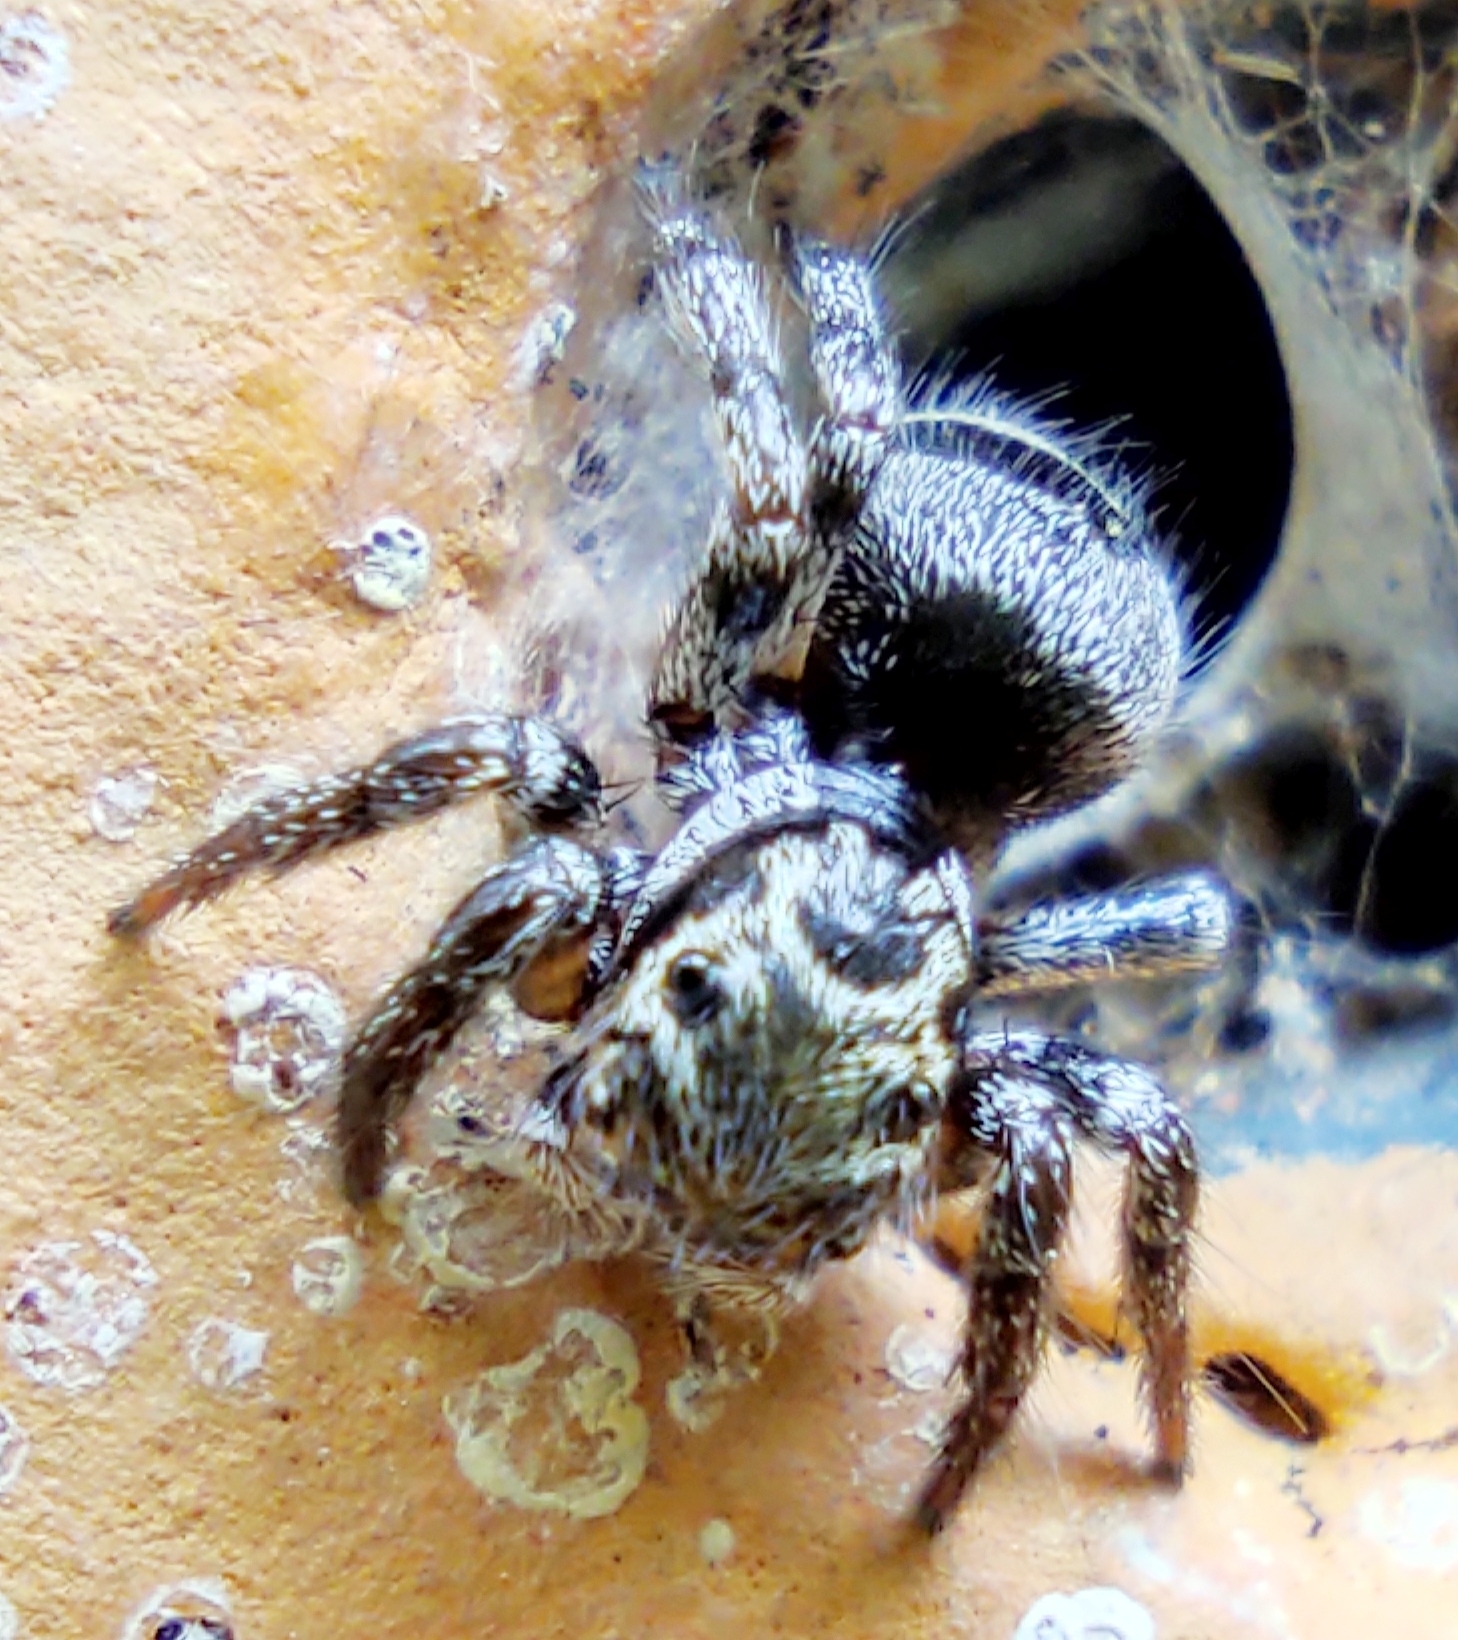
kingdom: Animalia
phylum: Arthropoda
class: Arachnida
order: Araneae
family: Salticidae
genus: Corythalia
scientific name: Corythalia conferta
